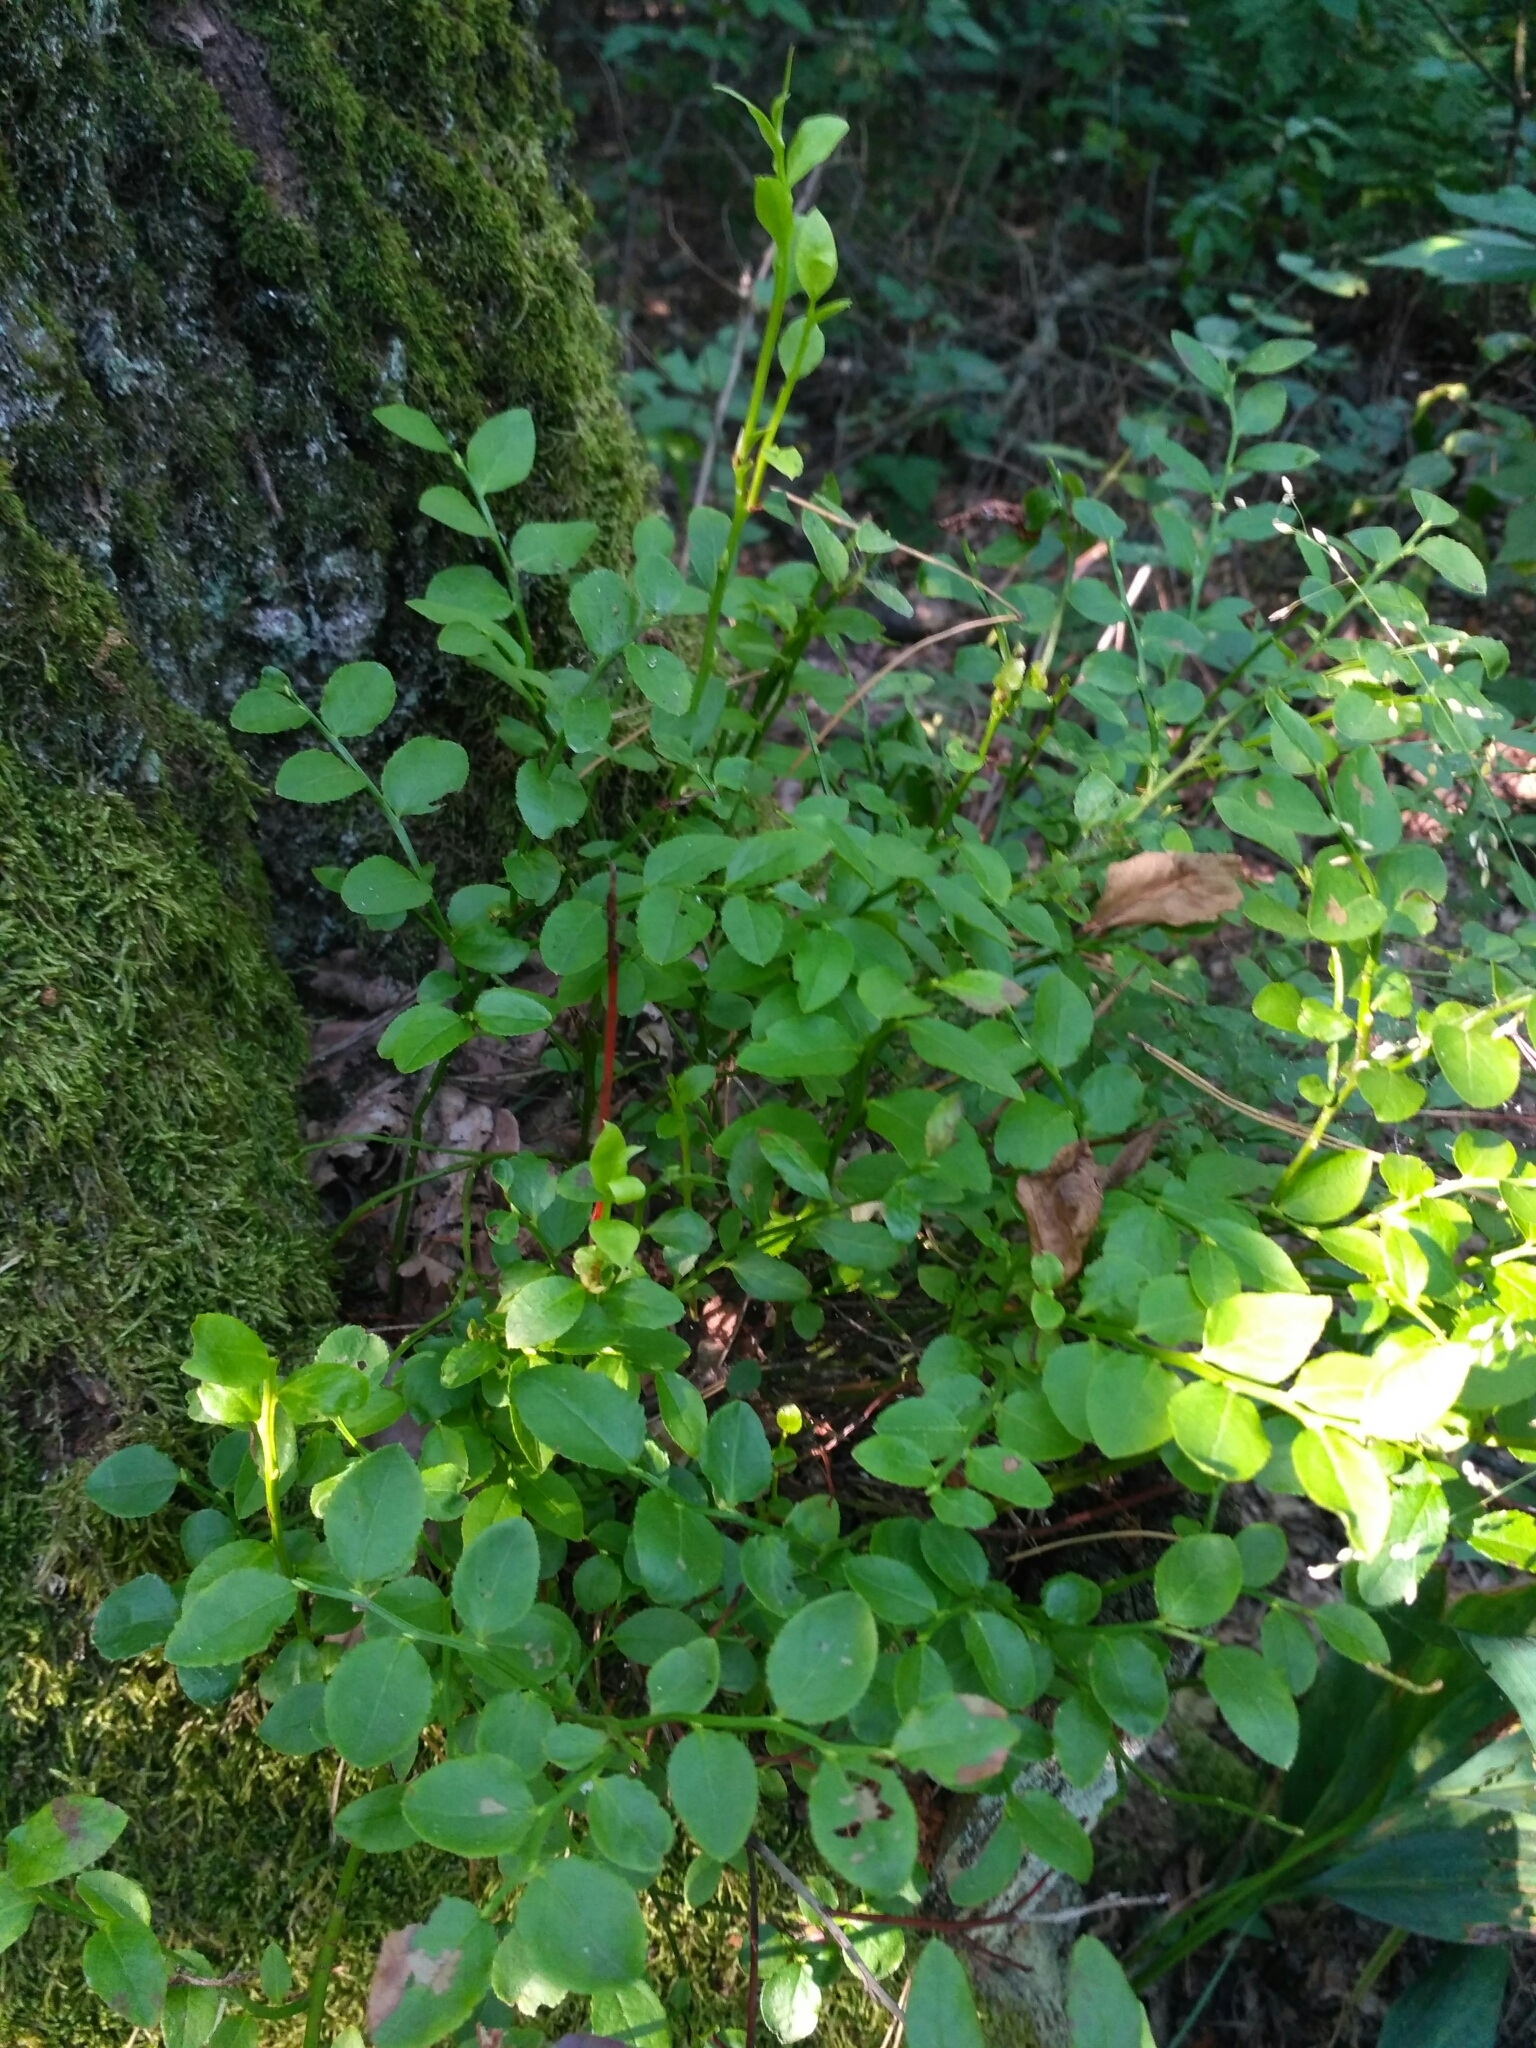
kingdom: Plantae
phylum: Tracheophyta
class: Magnoliopsida
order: Ericales
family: Ericaceae
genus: Vaccinium
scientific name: Vaccinium myrtillus
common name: Bilberry
